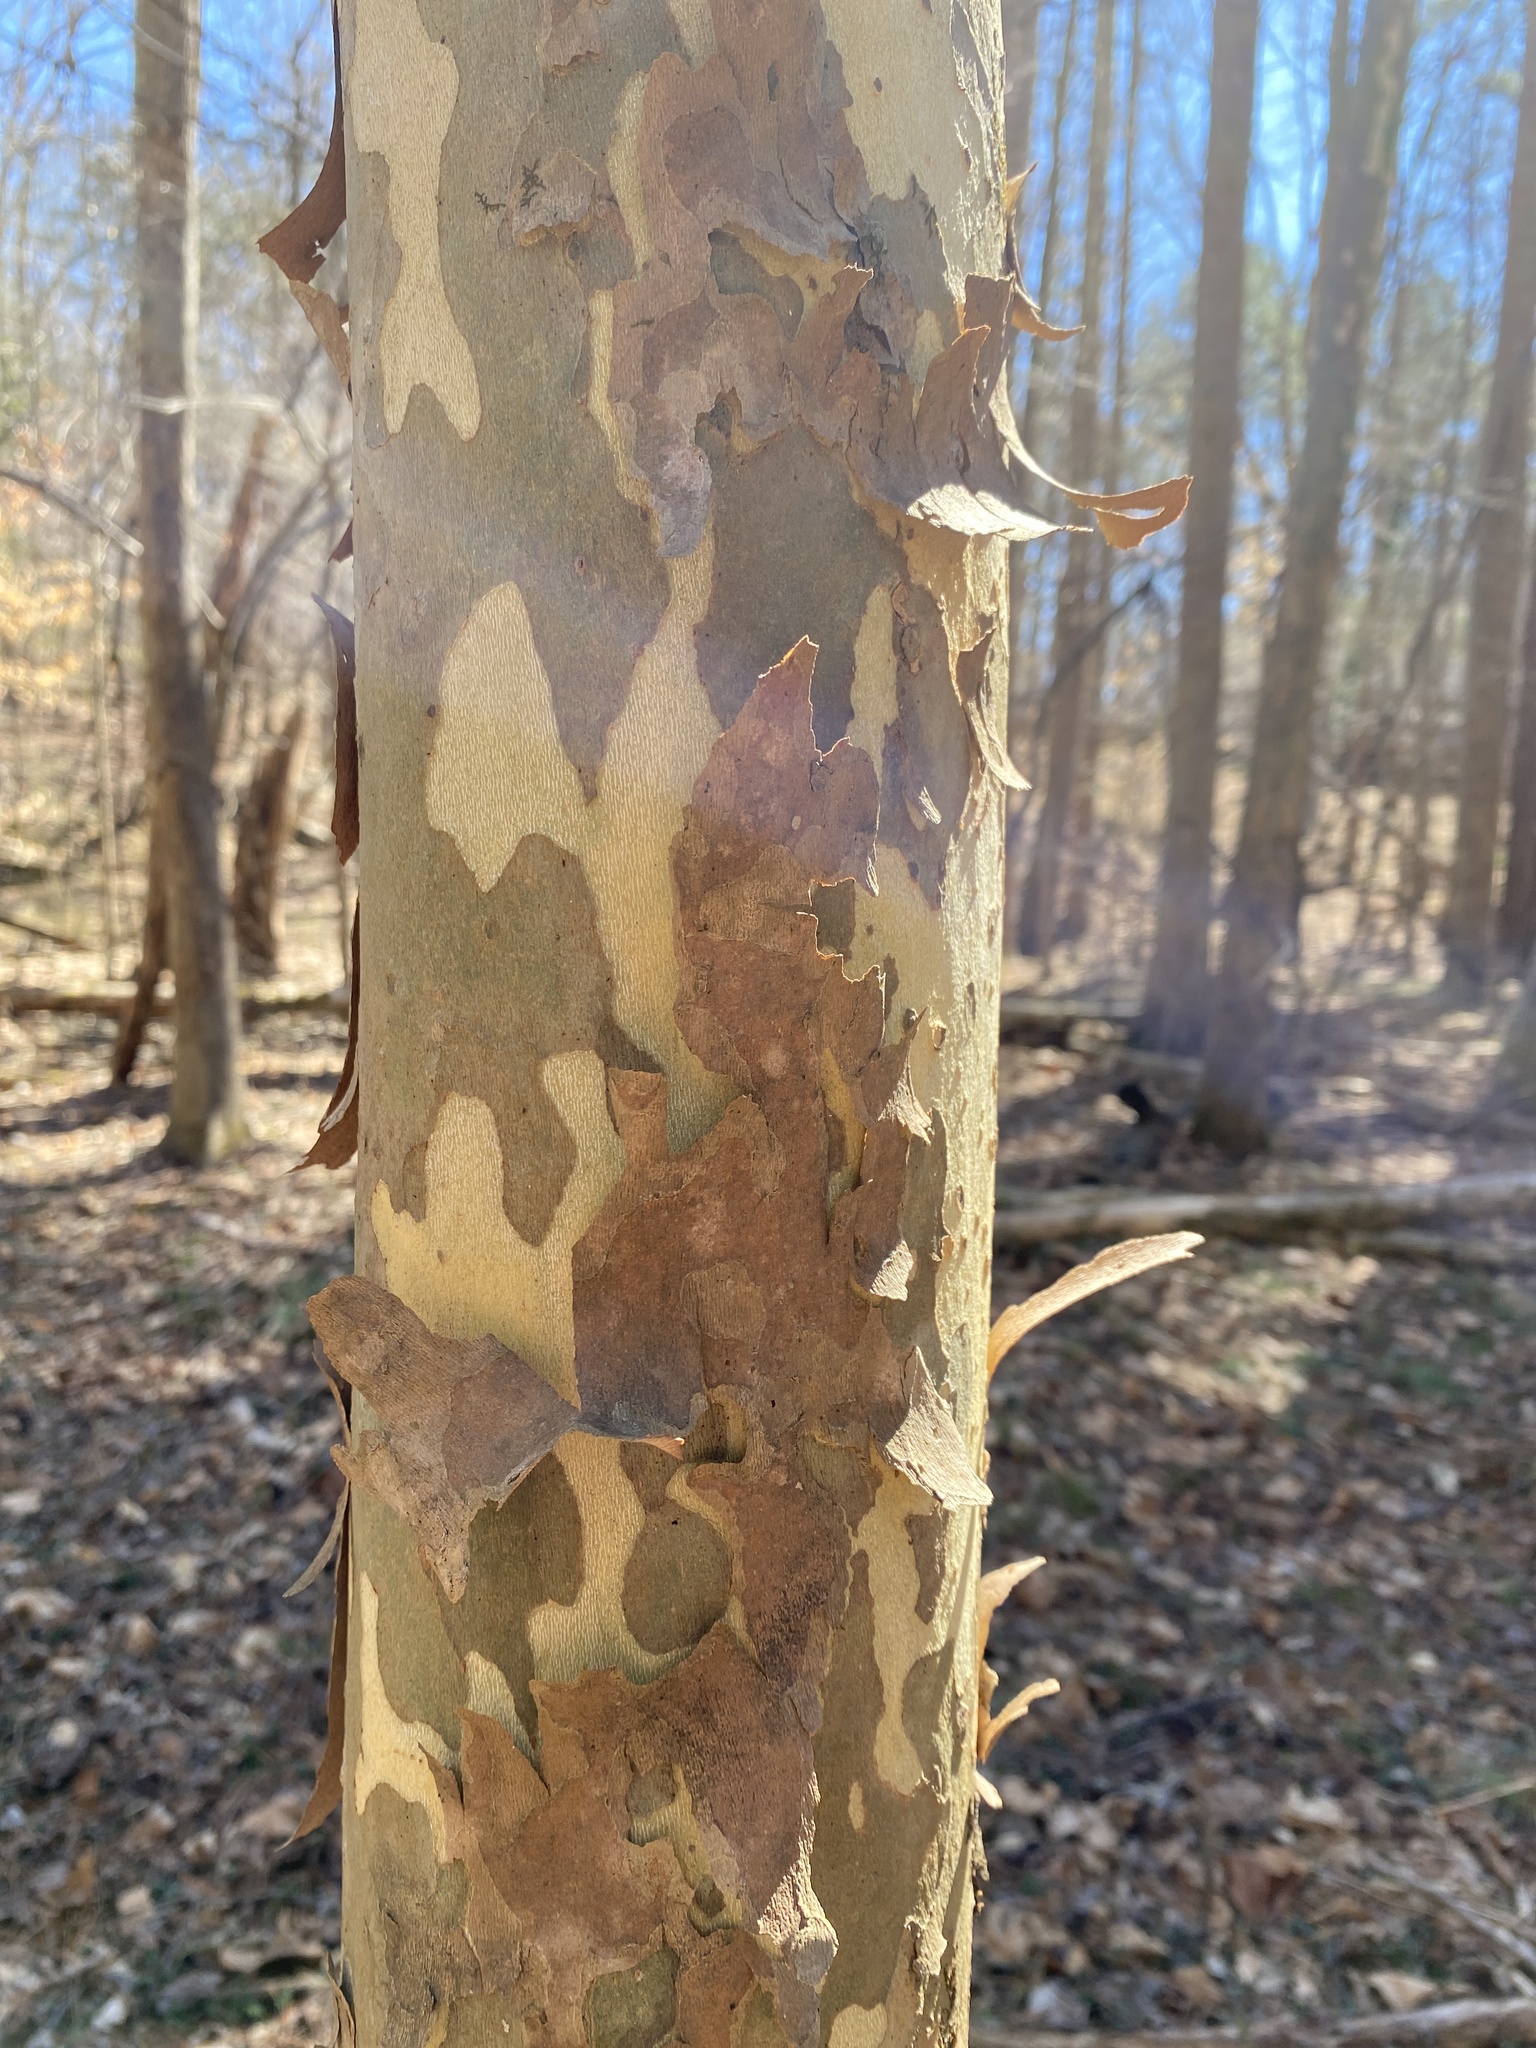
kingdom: Plantae
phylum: Tracheophyta
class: Magnoliopsida
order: Proteales
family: Platanaceae
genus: Platanus
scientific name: Platanus occidentalis
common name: American sycamore
